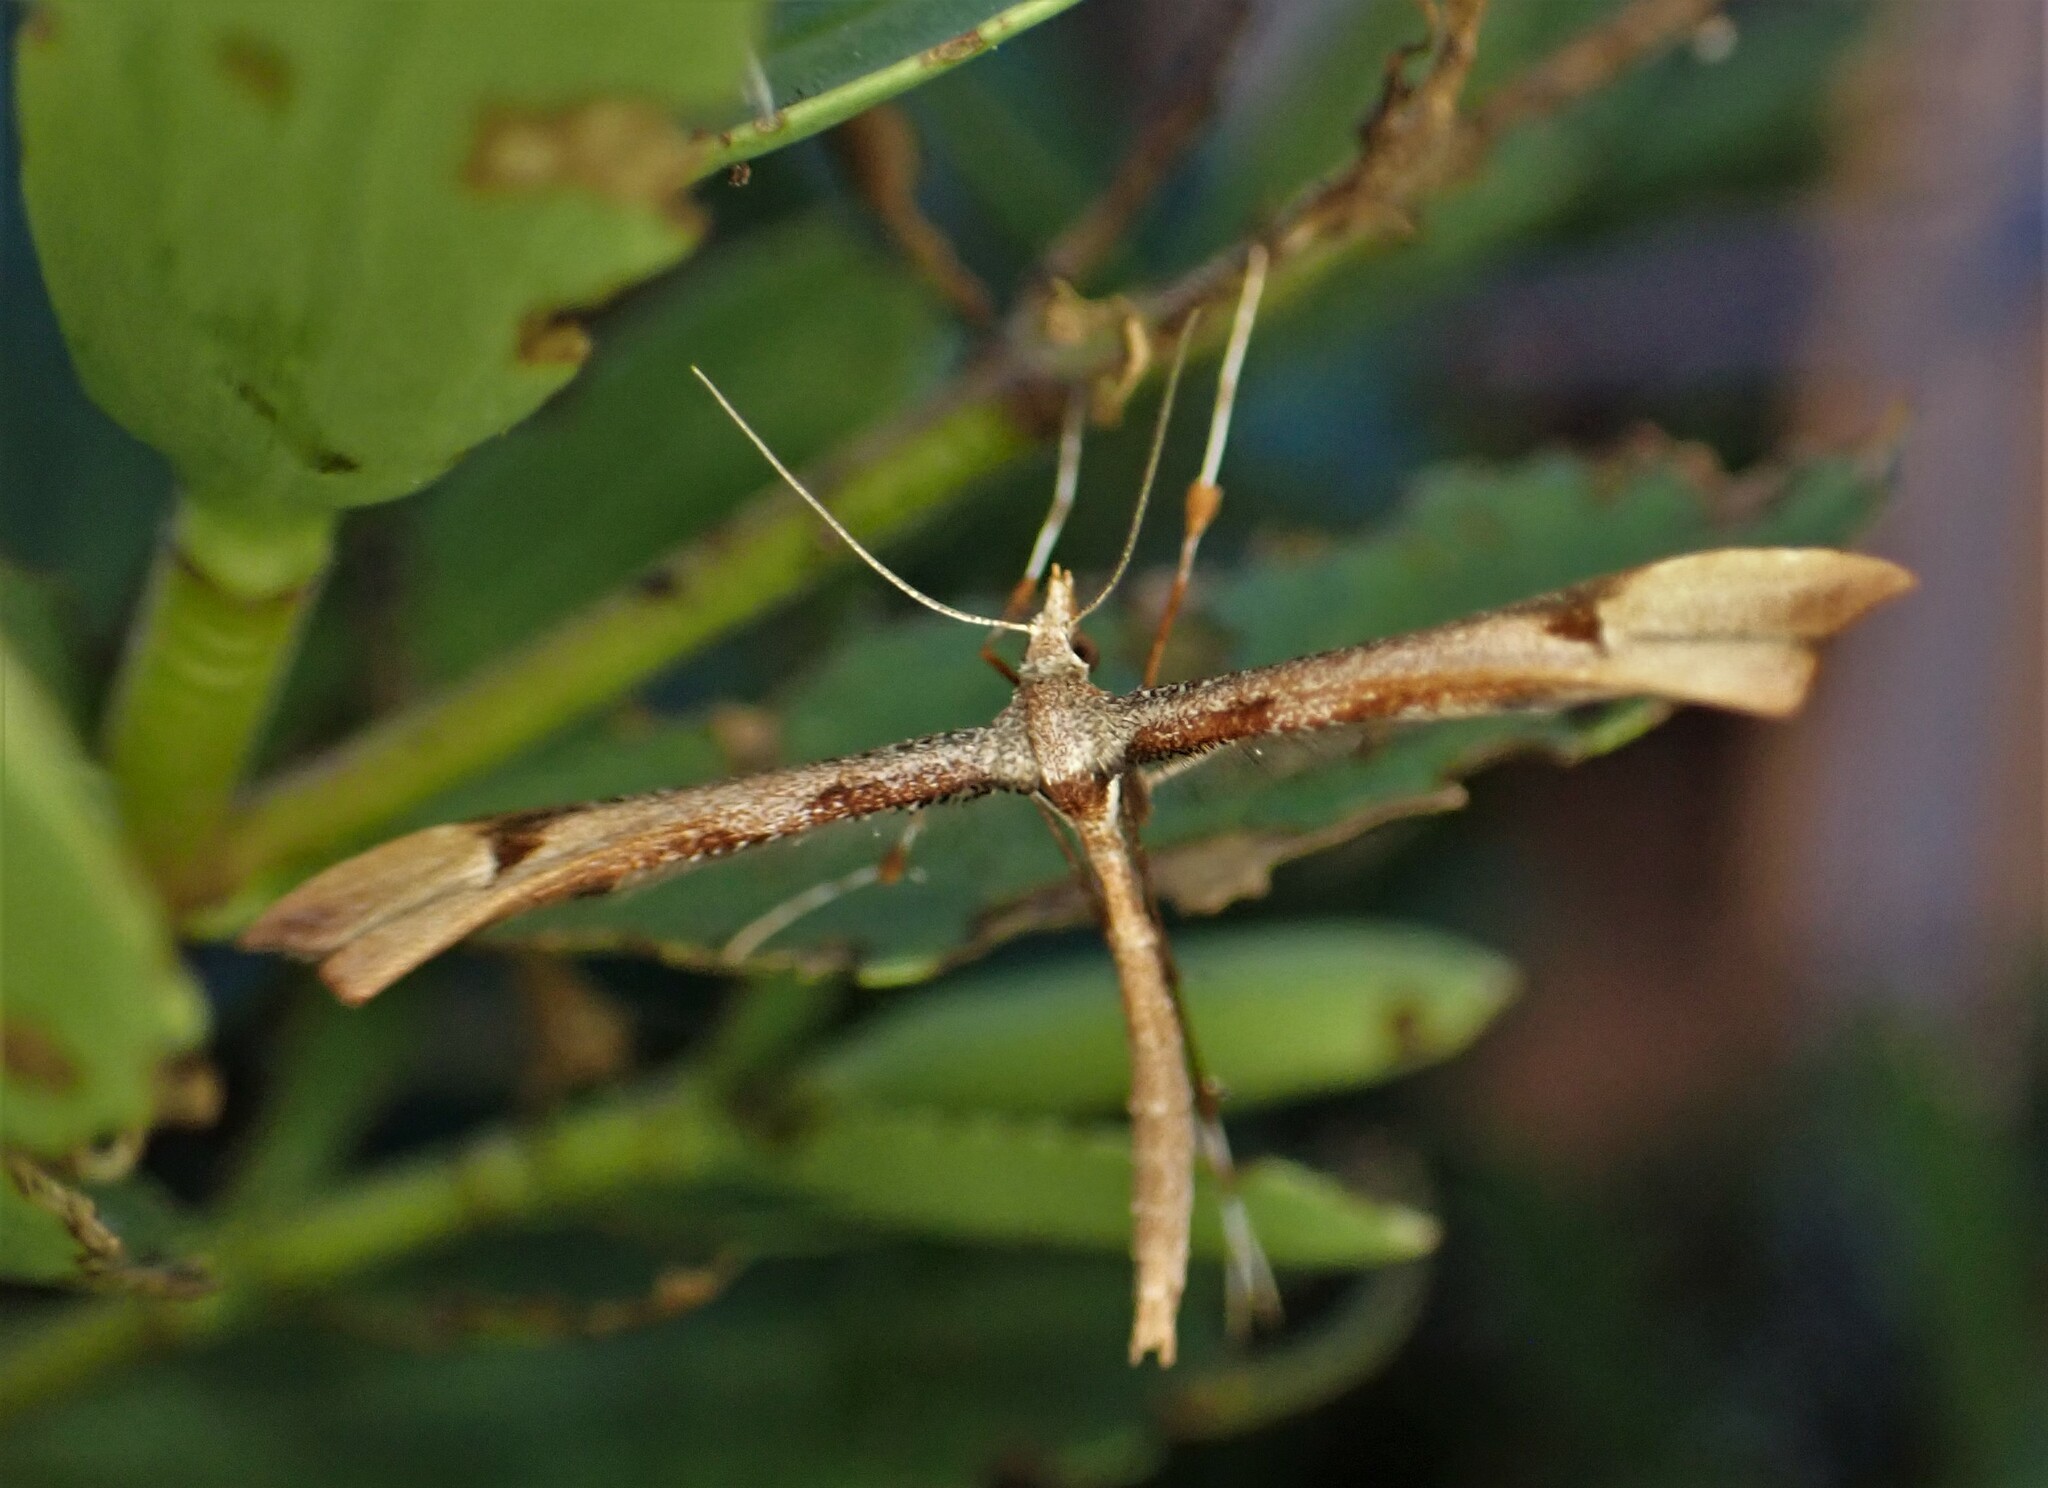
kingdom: Animalia
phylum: Arthropoda
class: Insecta
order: Lepidoptera
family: Pterophoridae
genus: Amblyptilia
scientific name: Amblyptilia heliastis
